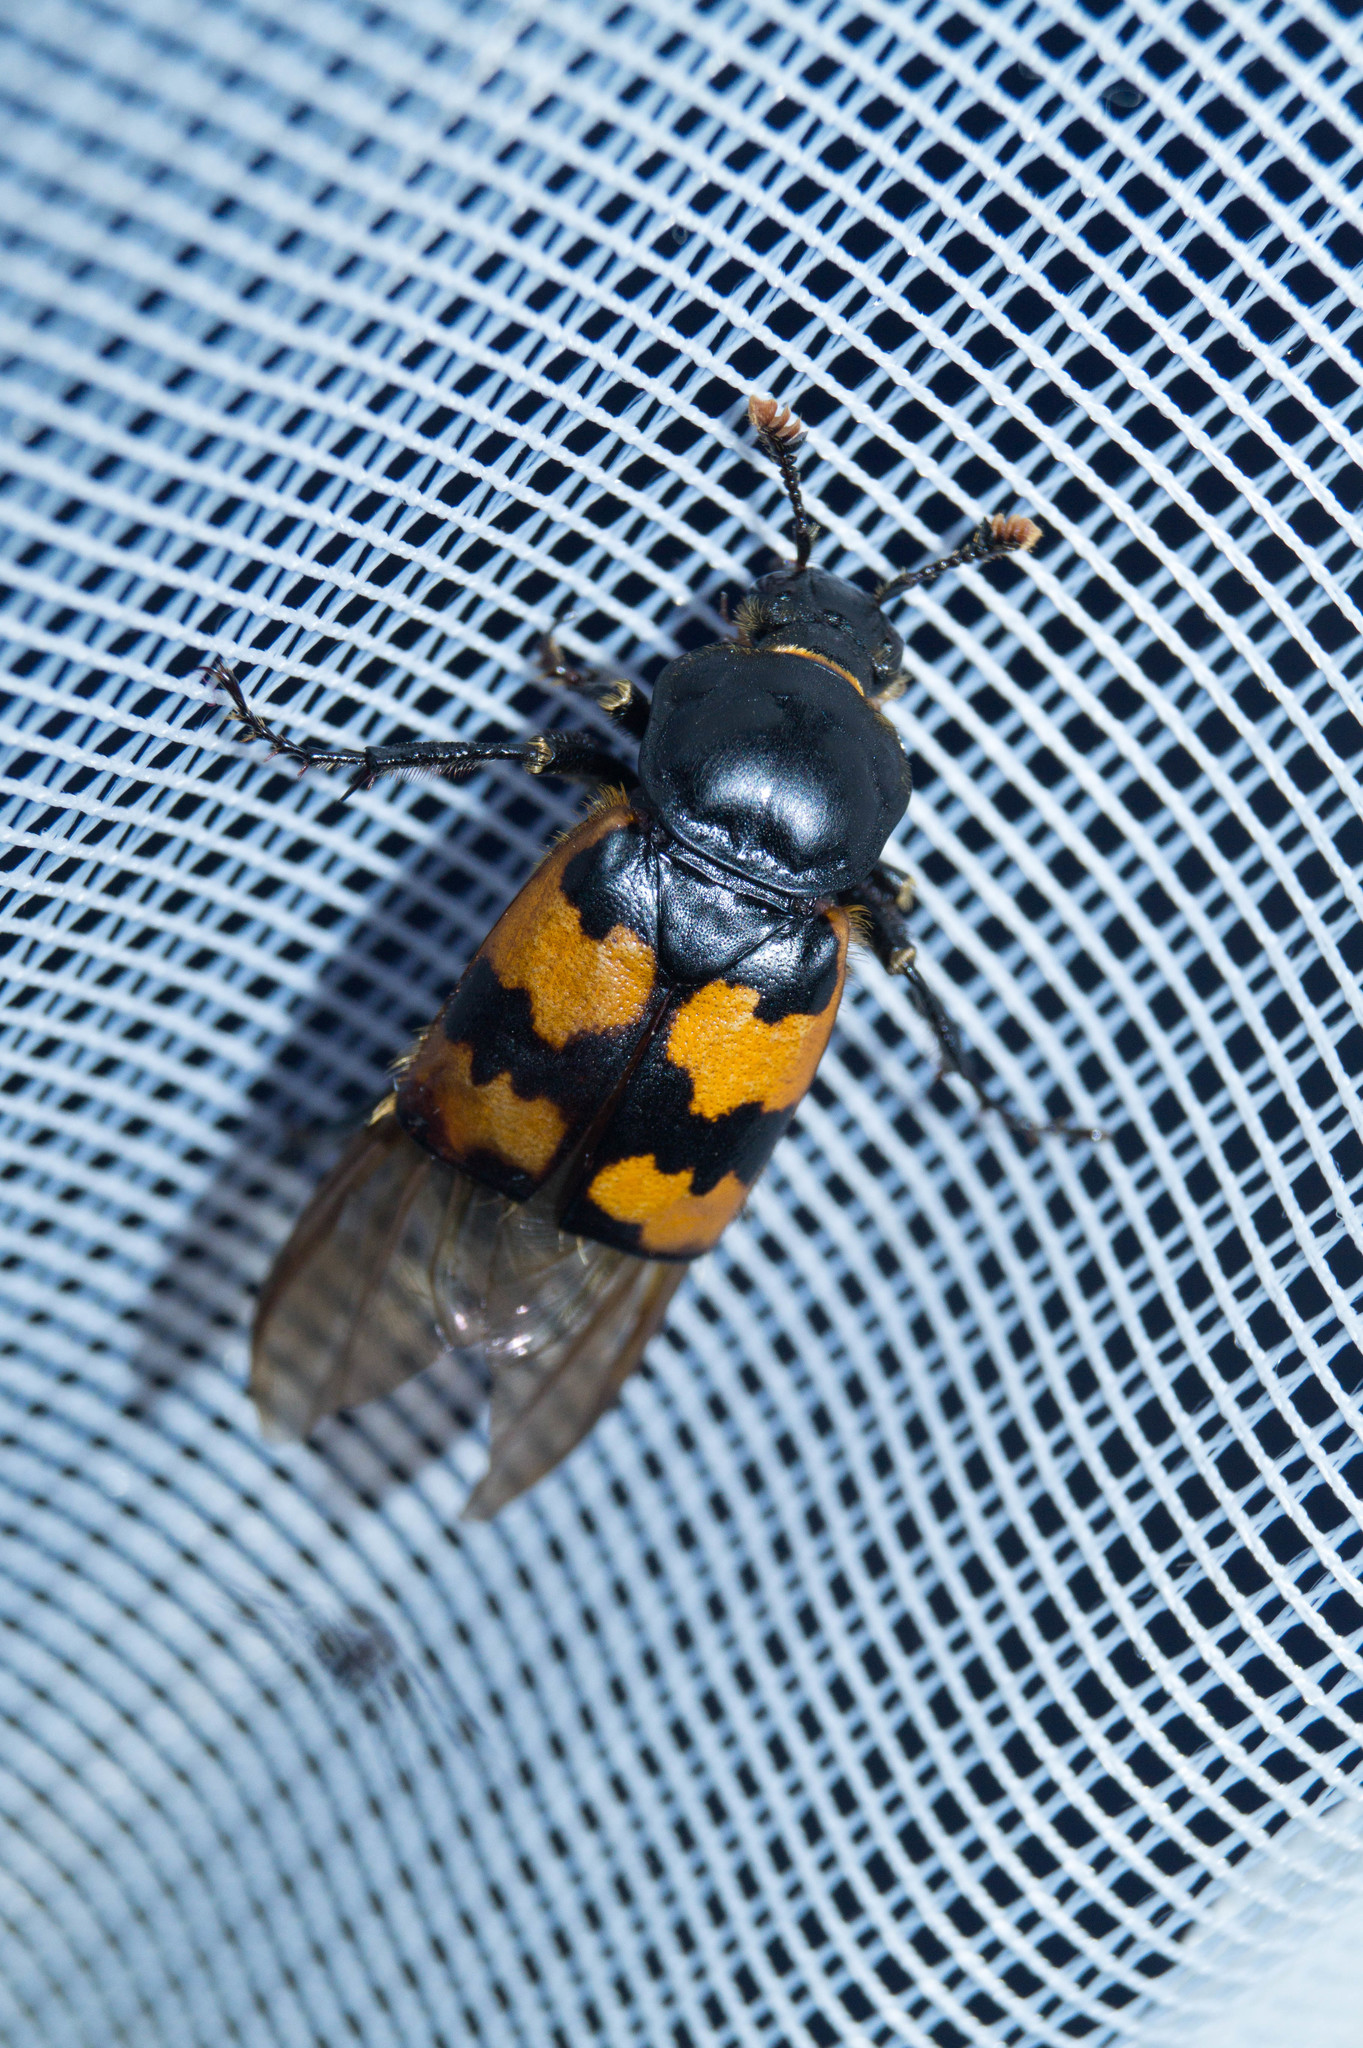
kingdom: Animalia
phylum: Arthropoda
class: Insecta
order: Coleoptera
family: Staphylinidae
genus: Nicrophorus
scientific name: Nicrophorus vespillo
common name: Common burying beetle
